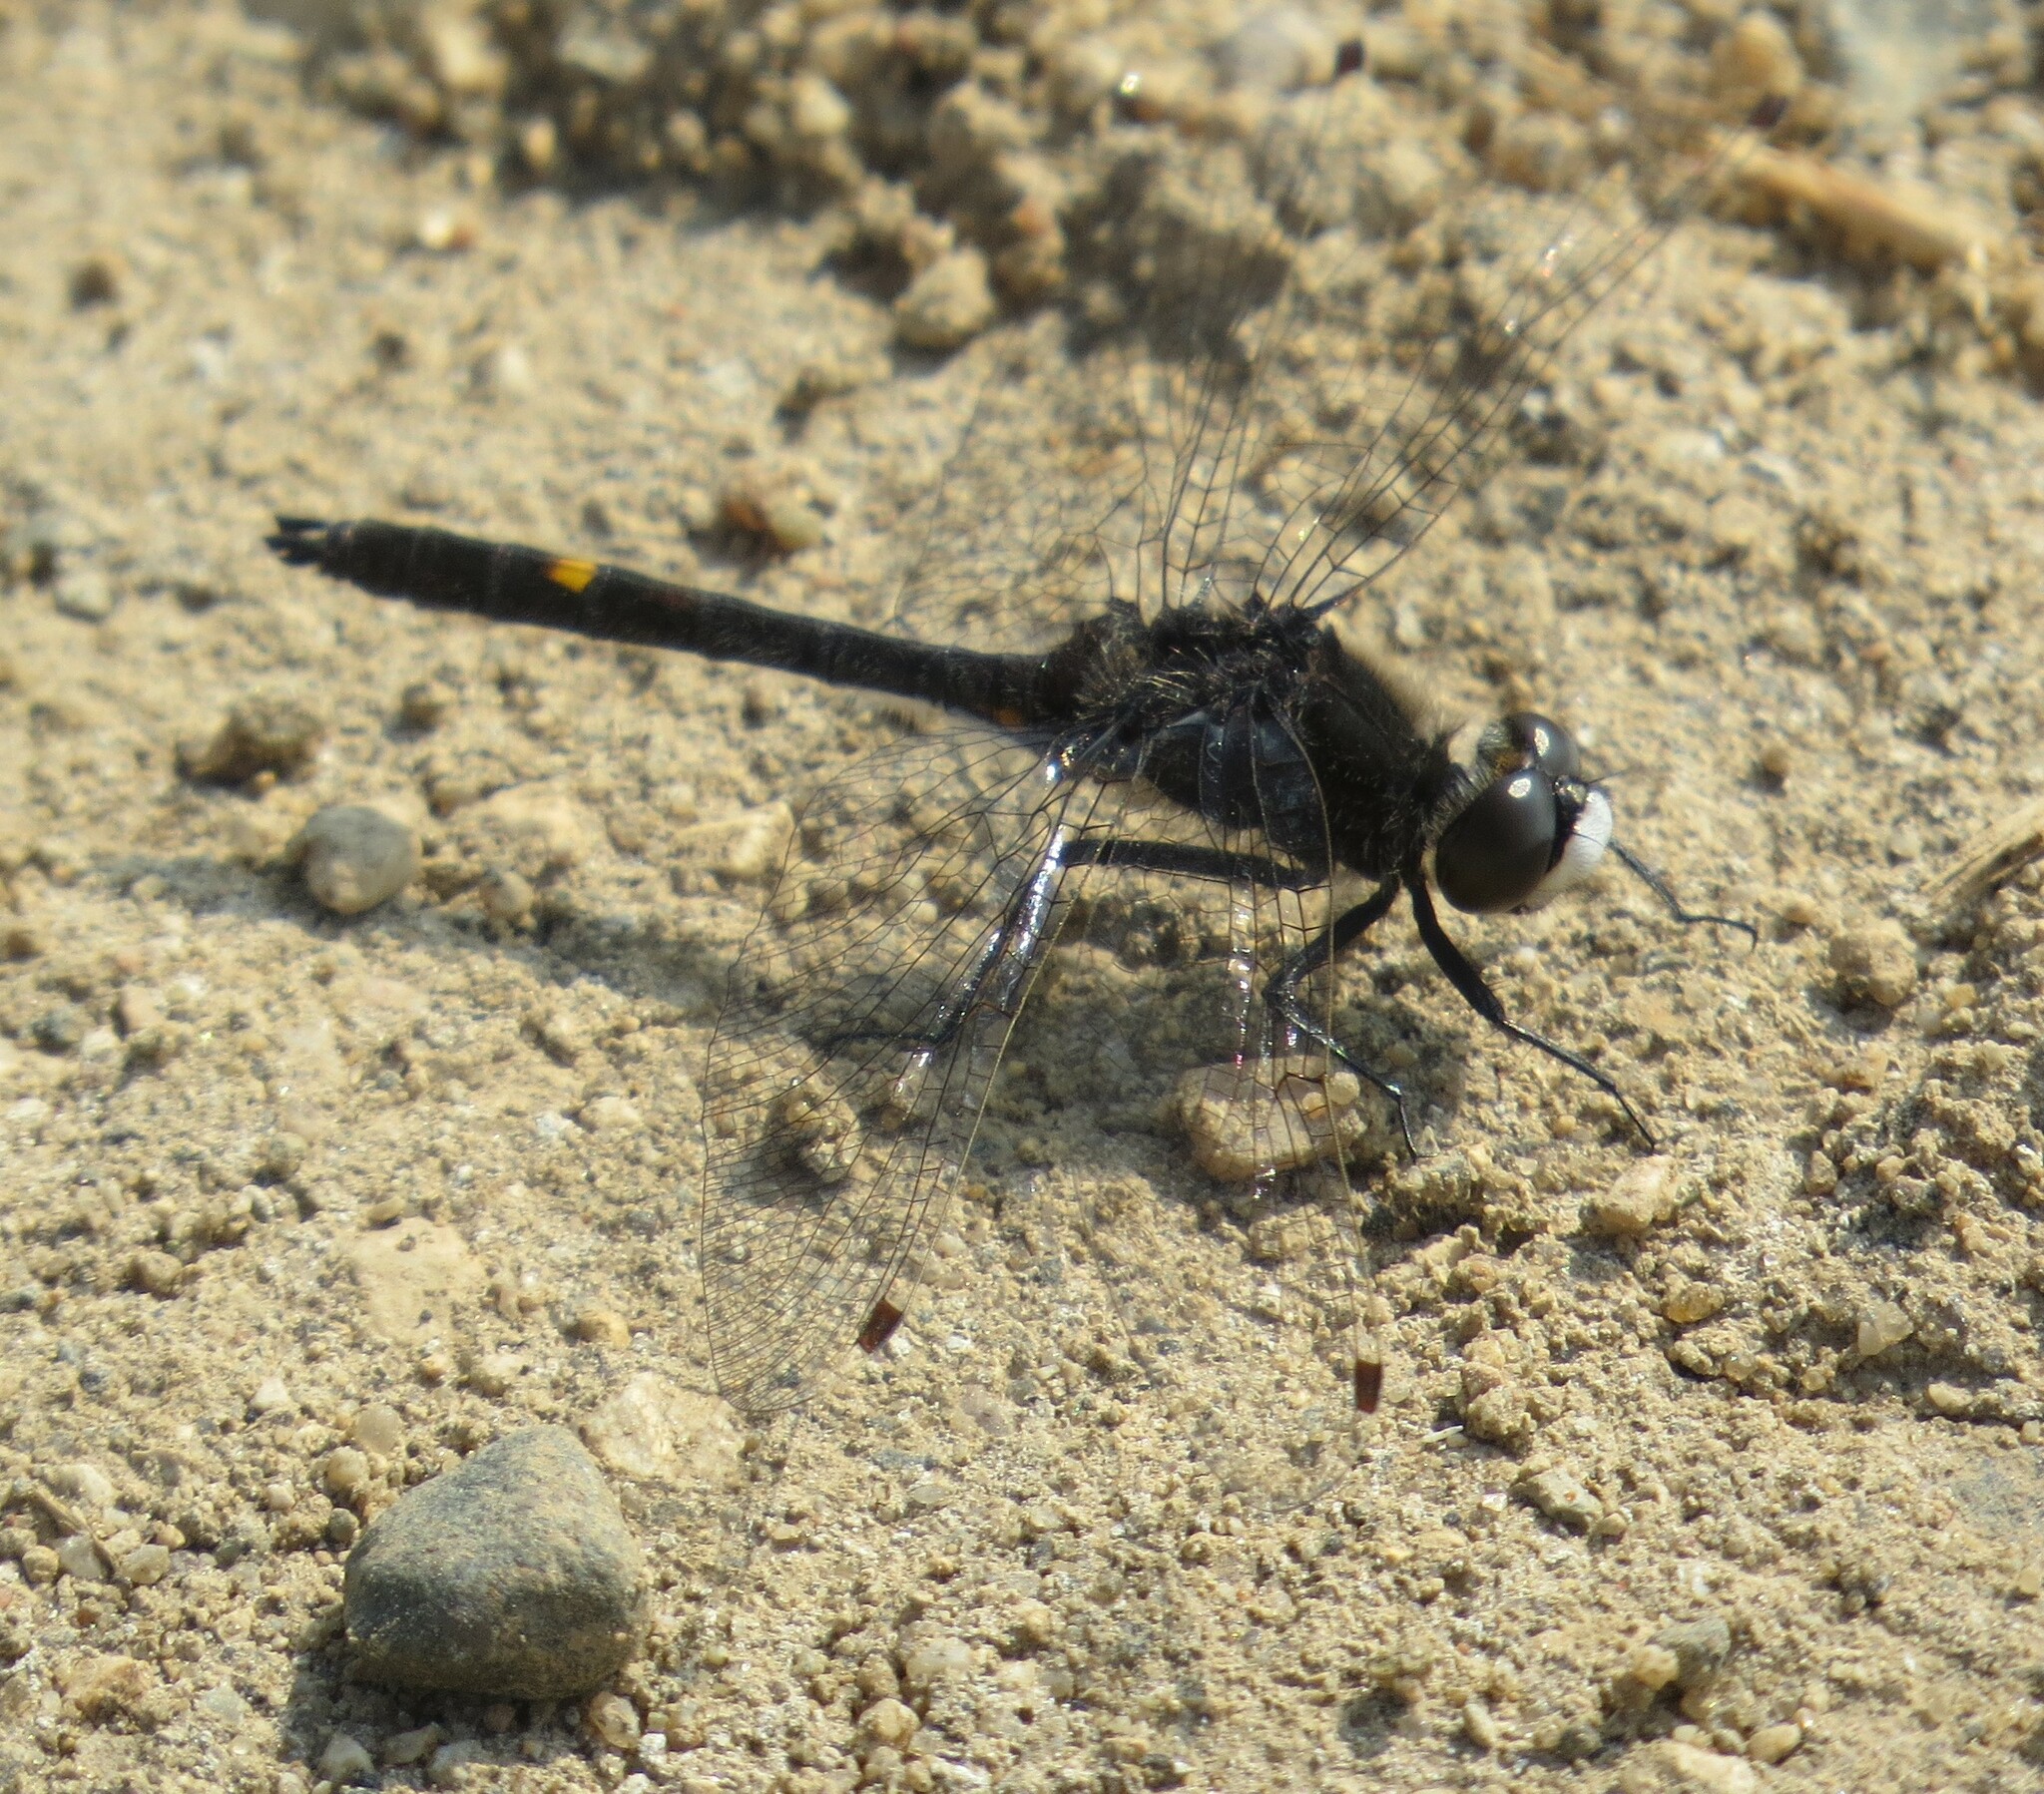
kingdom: Animalia
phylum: Arthropoda
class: Insecta
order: Odonata
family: Libellulidae
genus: Leucorrhinia
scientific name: Leucorrhinia intacta
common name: Dot-tailed whiteface
